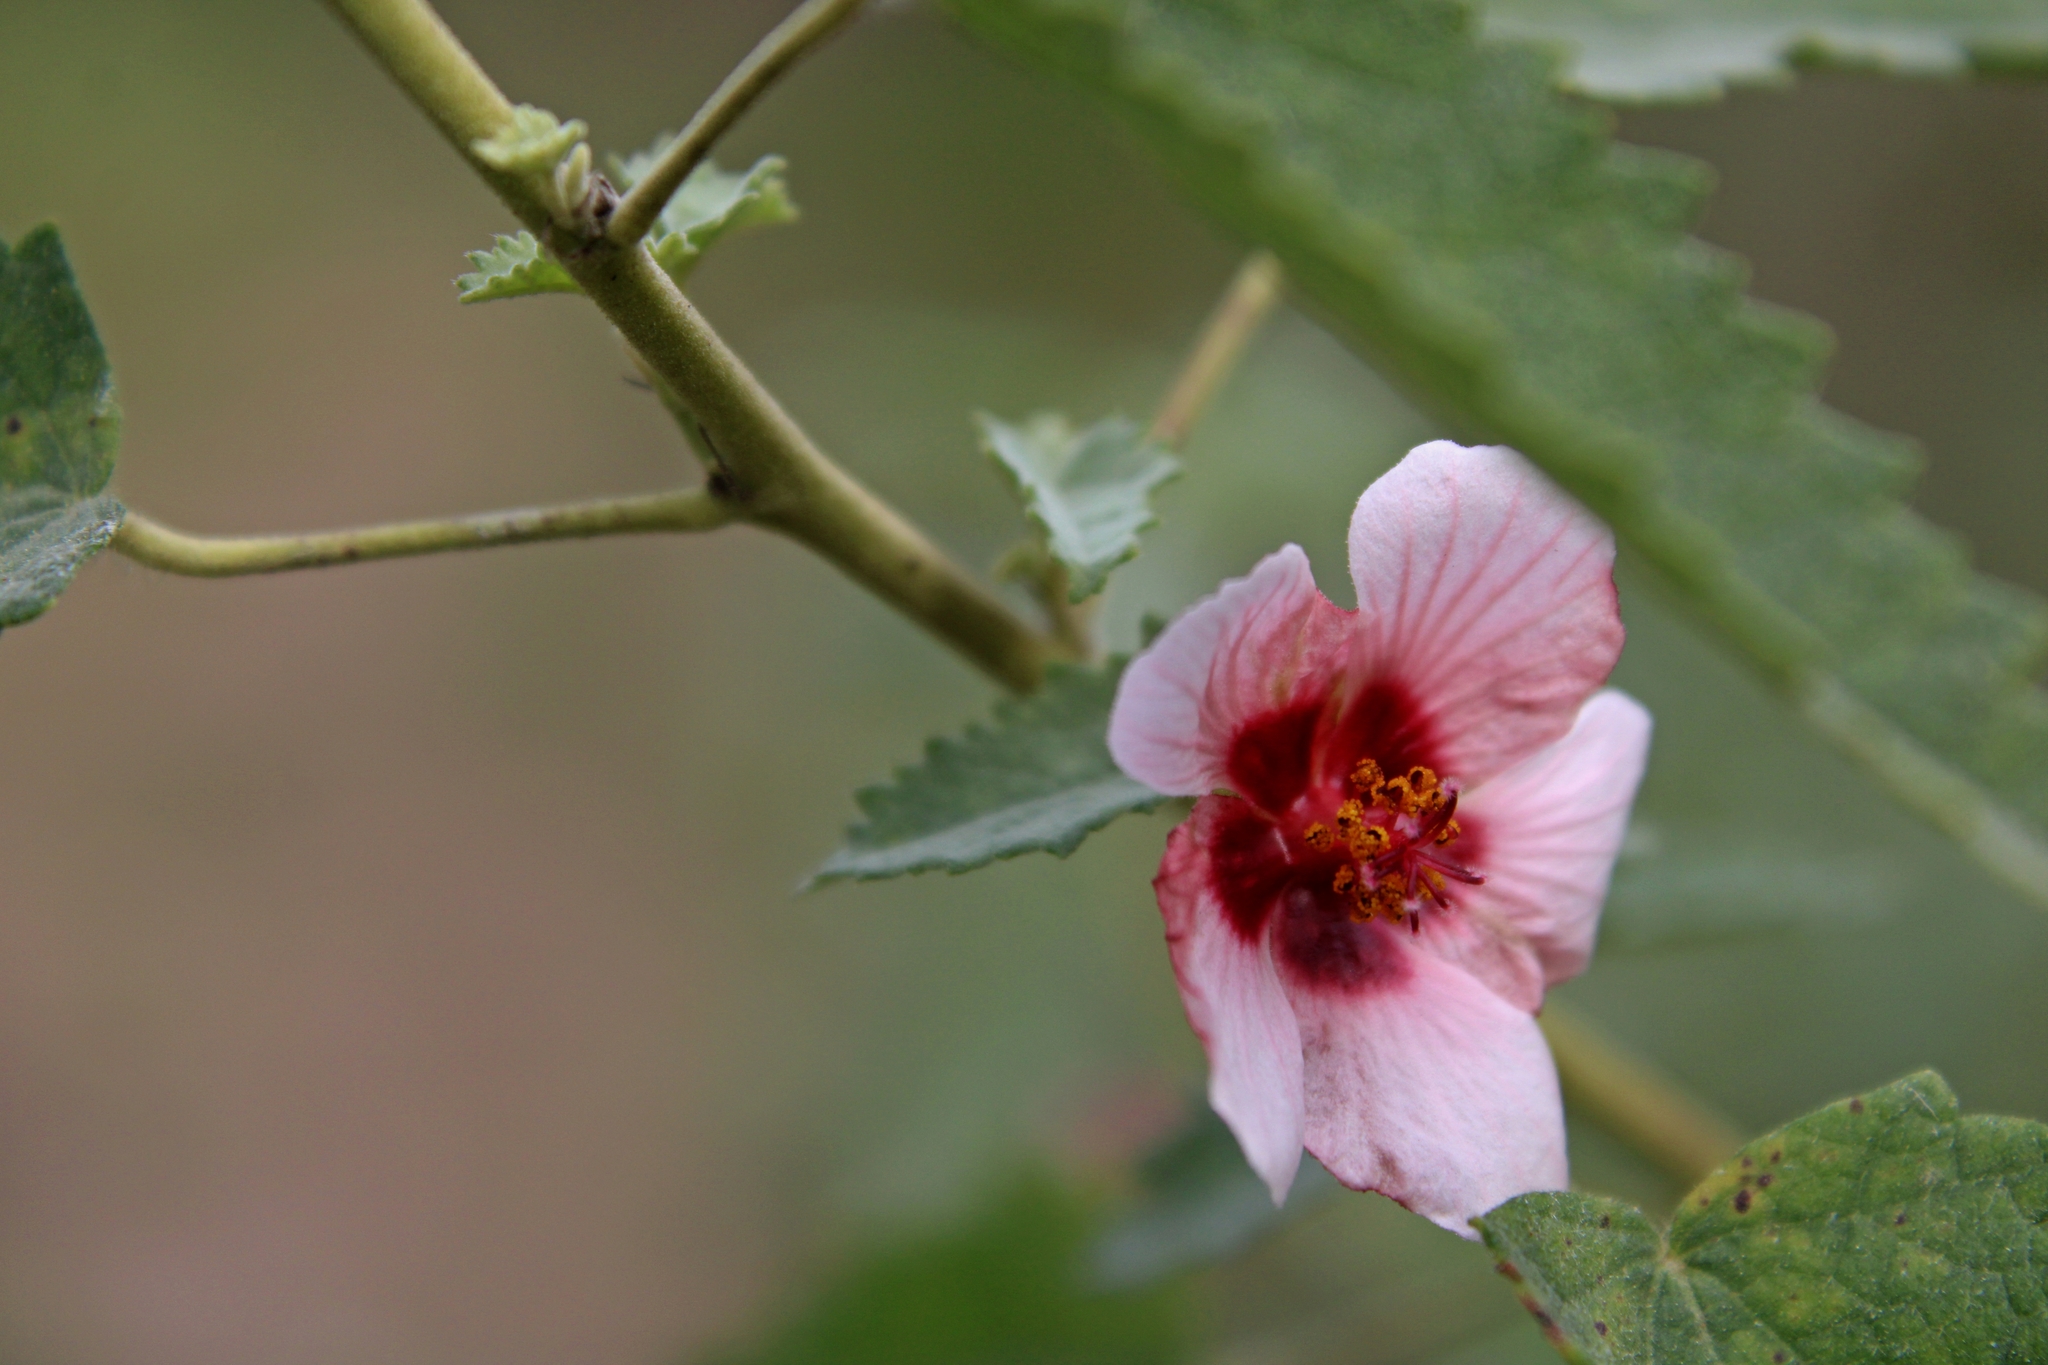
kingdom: Plantae
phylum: Tracheophyta
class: Magnoliopsida
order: Malvales
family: Malvaceae
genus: Pavonia
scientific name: Pavonia xanthogloea
